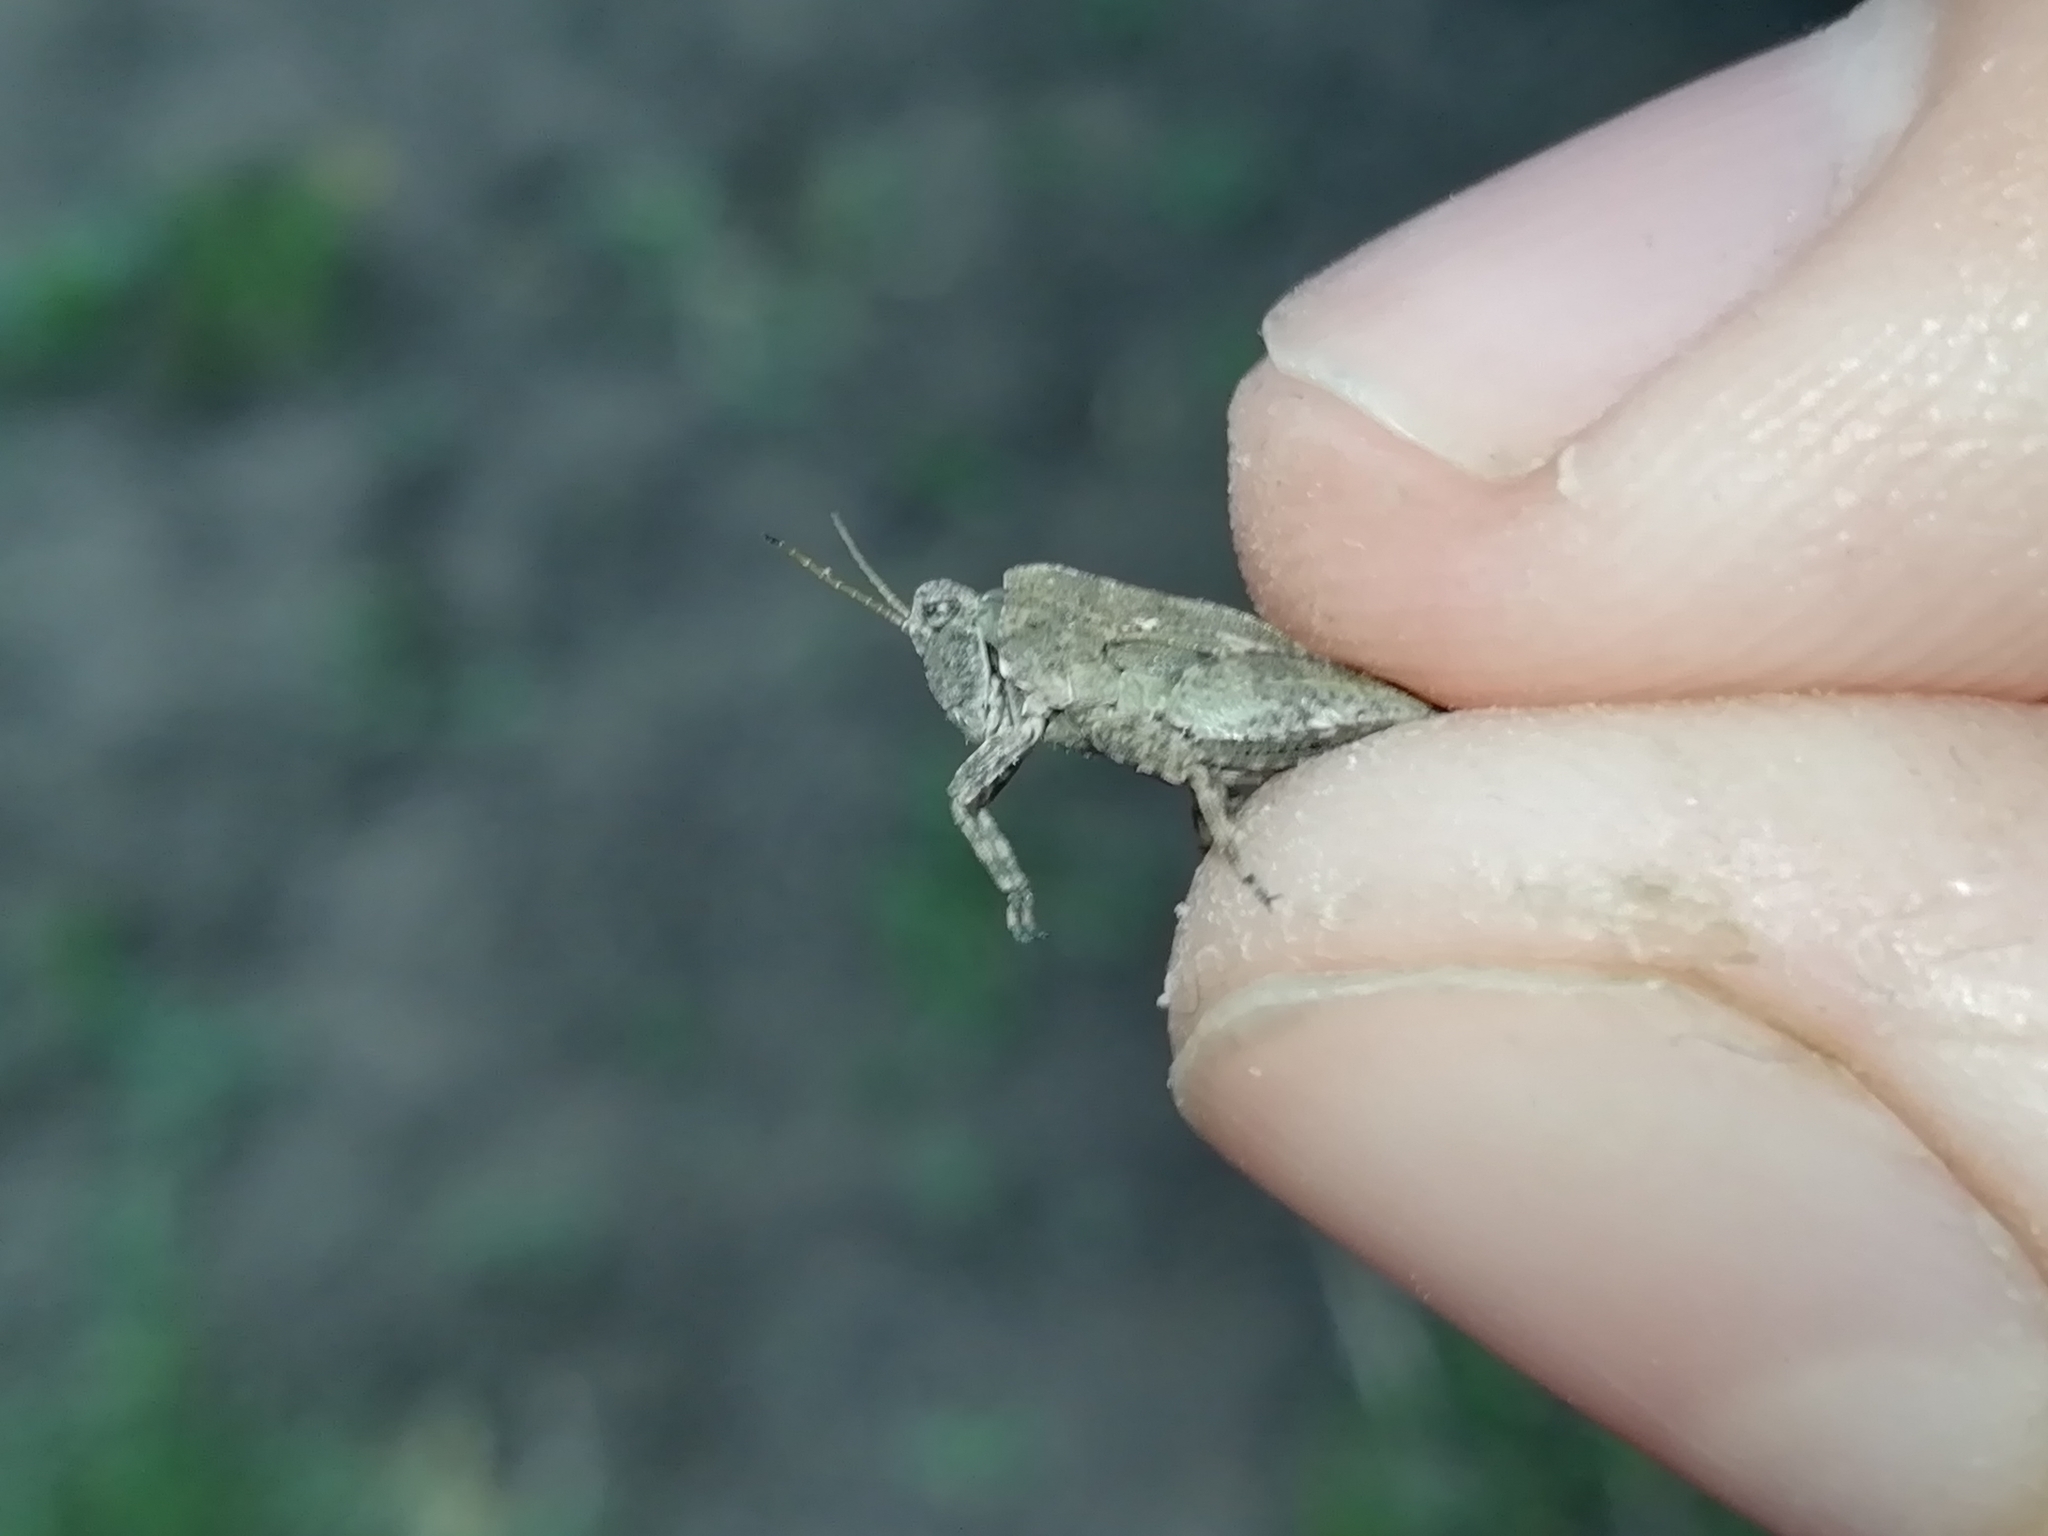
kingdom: Animalia
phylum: Arthropoda
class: Insecta
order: Orthoptera
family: Tetrigidae
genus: Tetrix
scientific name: Tetrix tenuicornis
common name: Long-horned groundhopper
